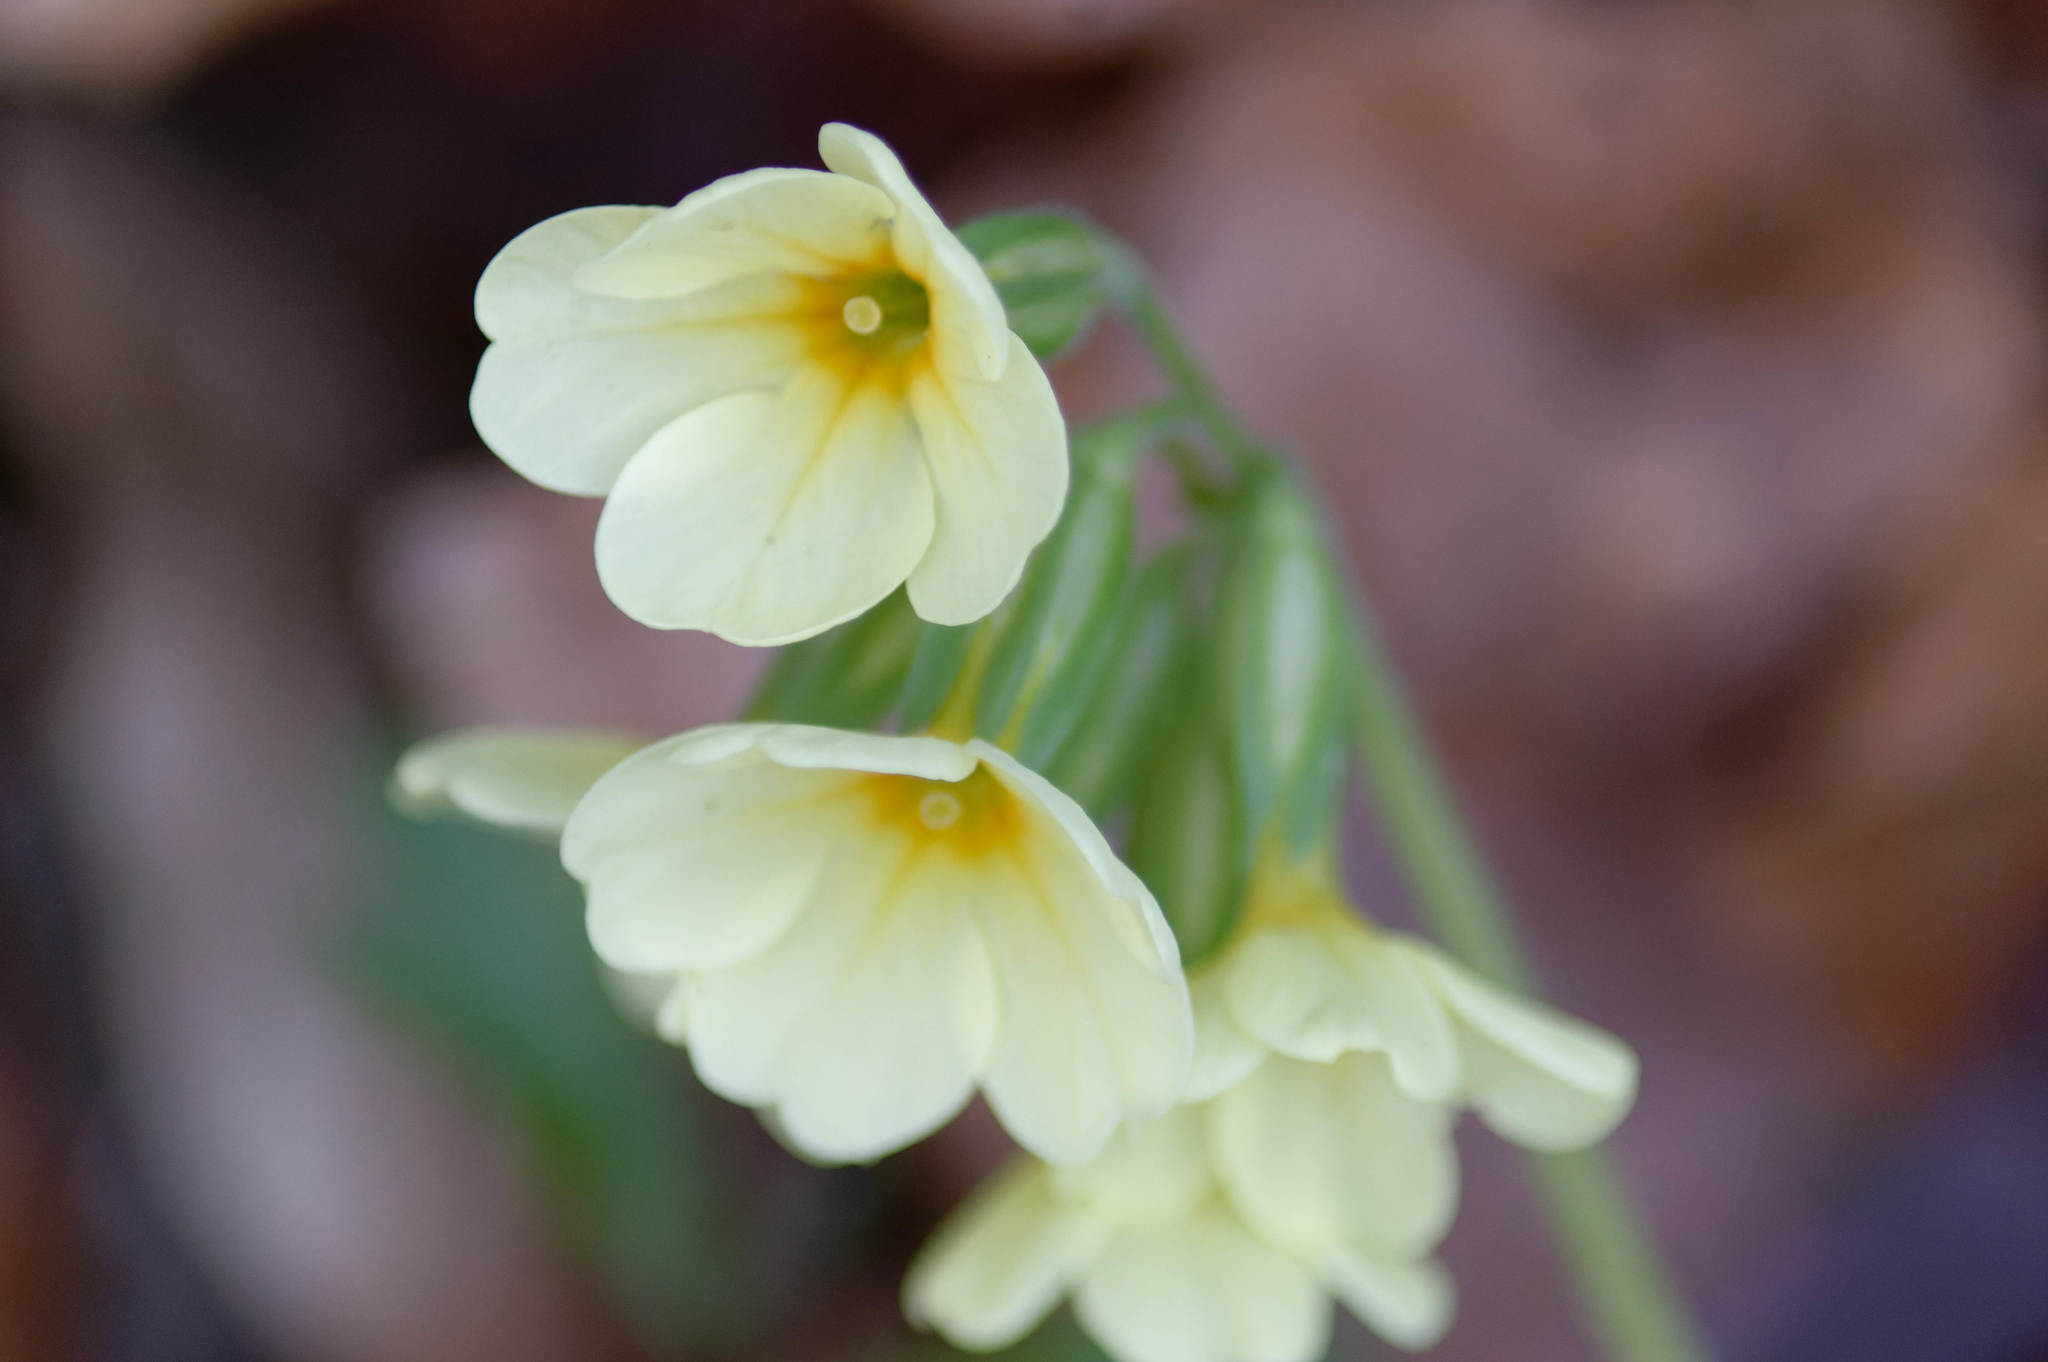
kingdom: Plantae
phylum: Tracheophyta
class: Magnoliopsida
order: Ericales
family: Primulaceae
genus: Primula
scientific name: Primula elatior
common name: Oxlip
